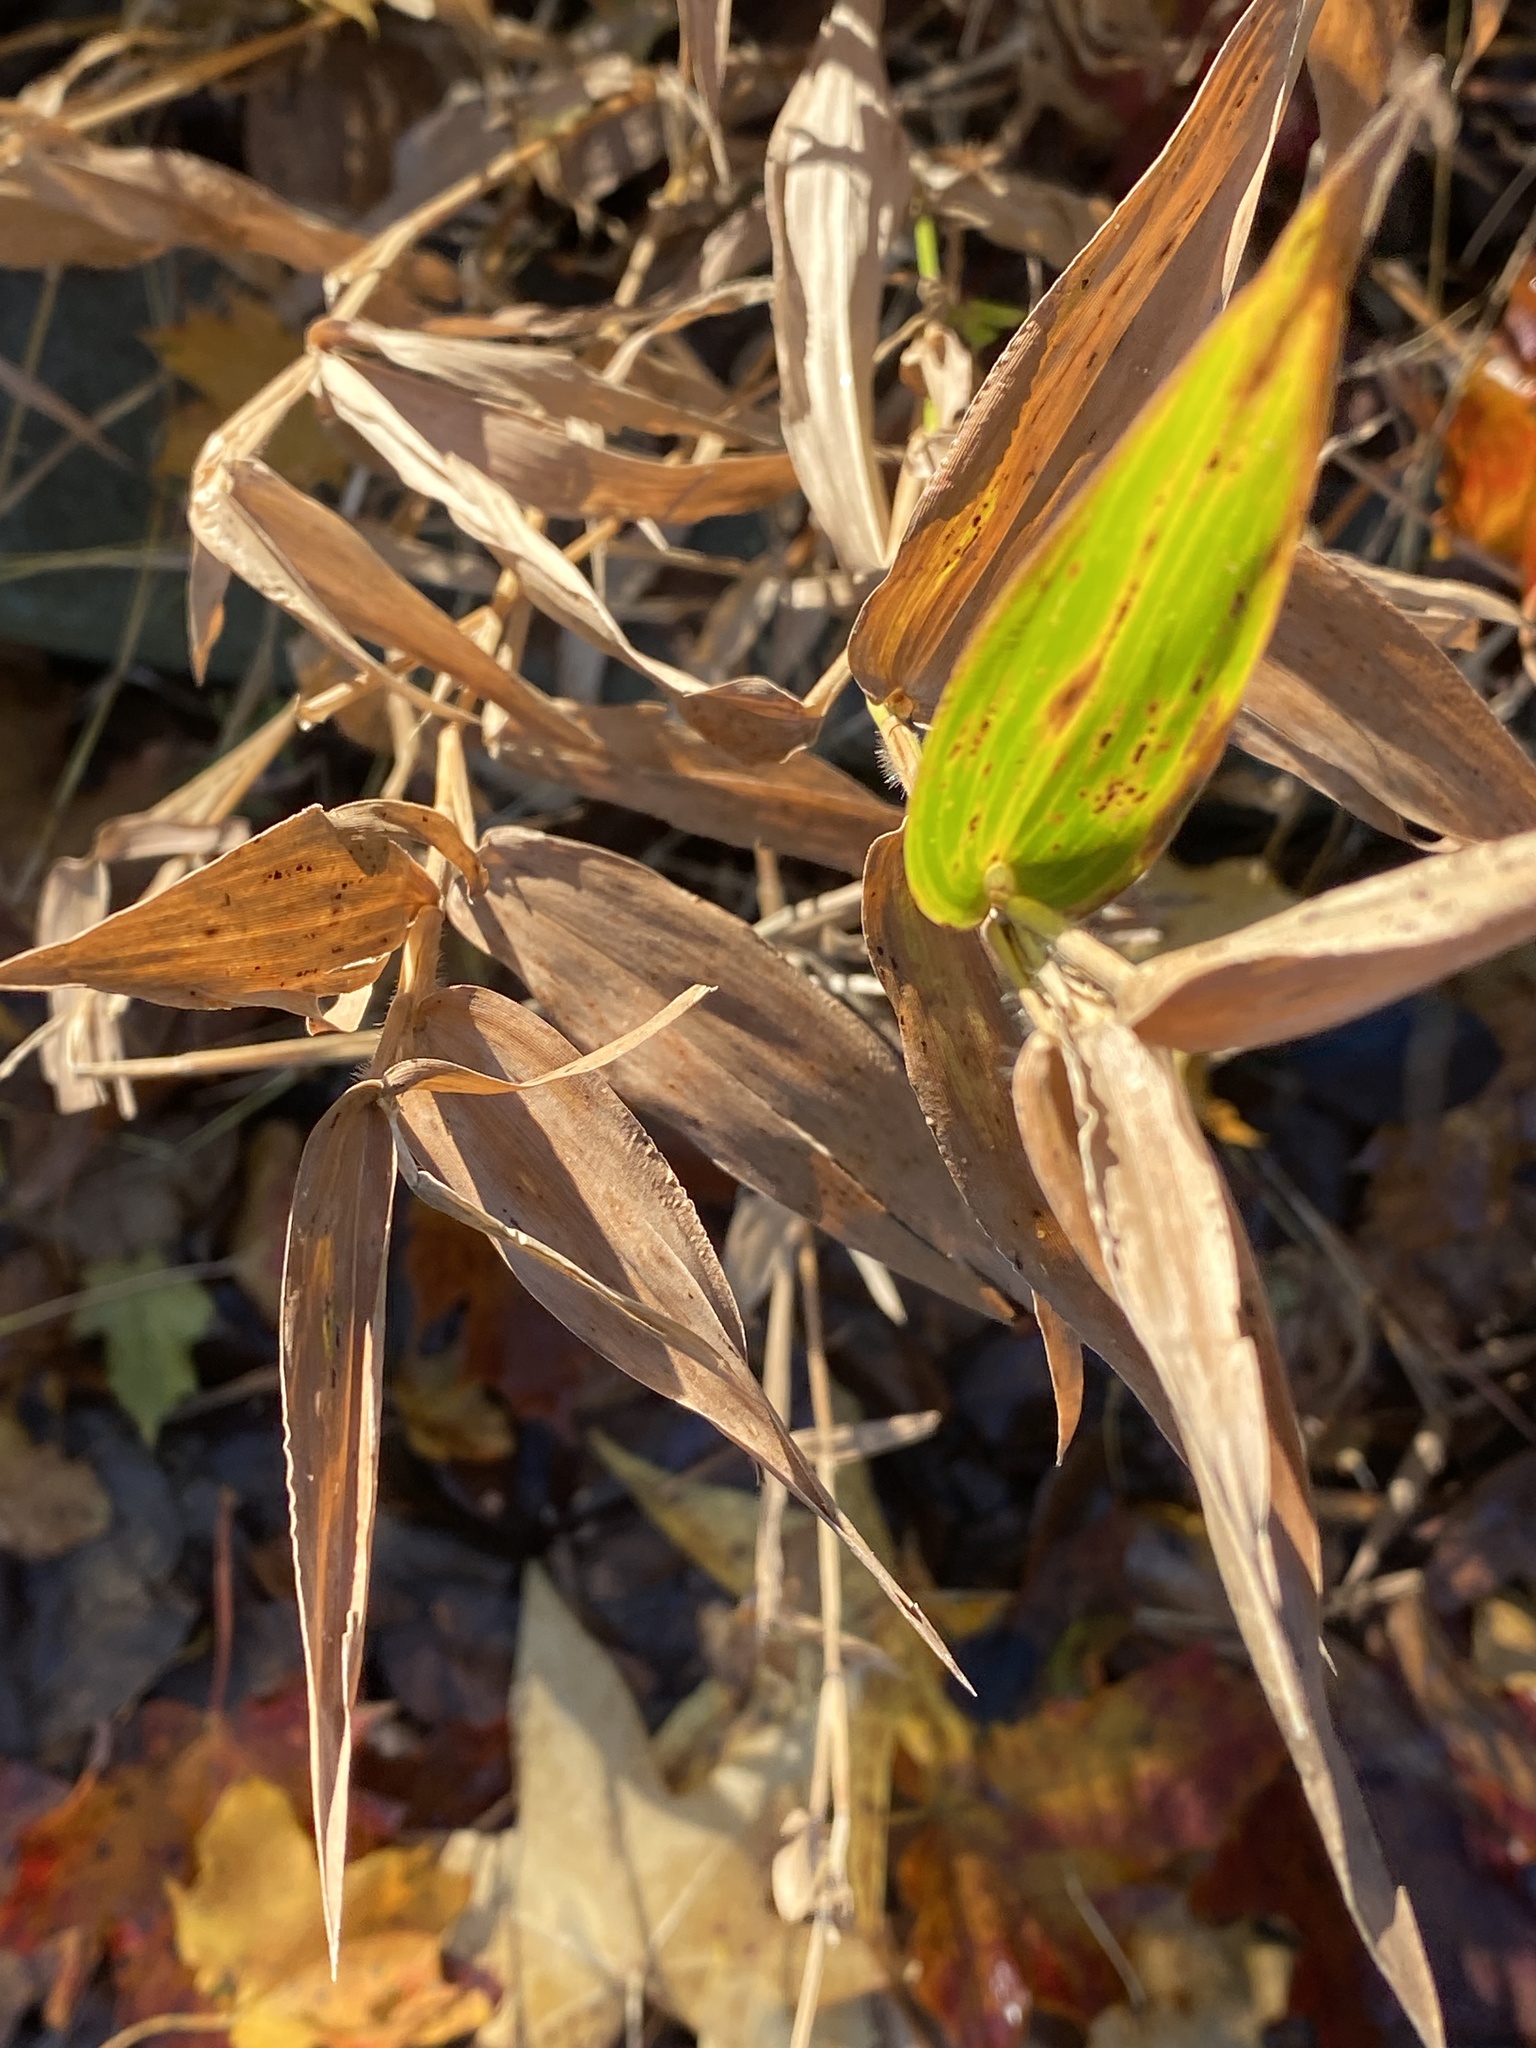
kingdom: Plantae
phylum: Tracheophyta
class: Liliopsida
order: Poales
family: Poaceae
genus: Dichanthelium
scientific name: Dichanthelium clandestinum
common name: Deer-tongue grass
